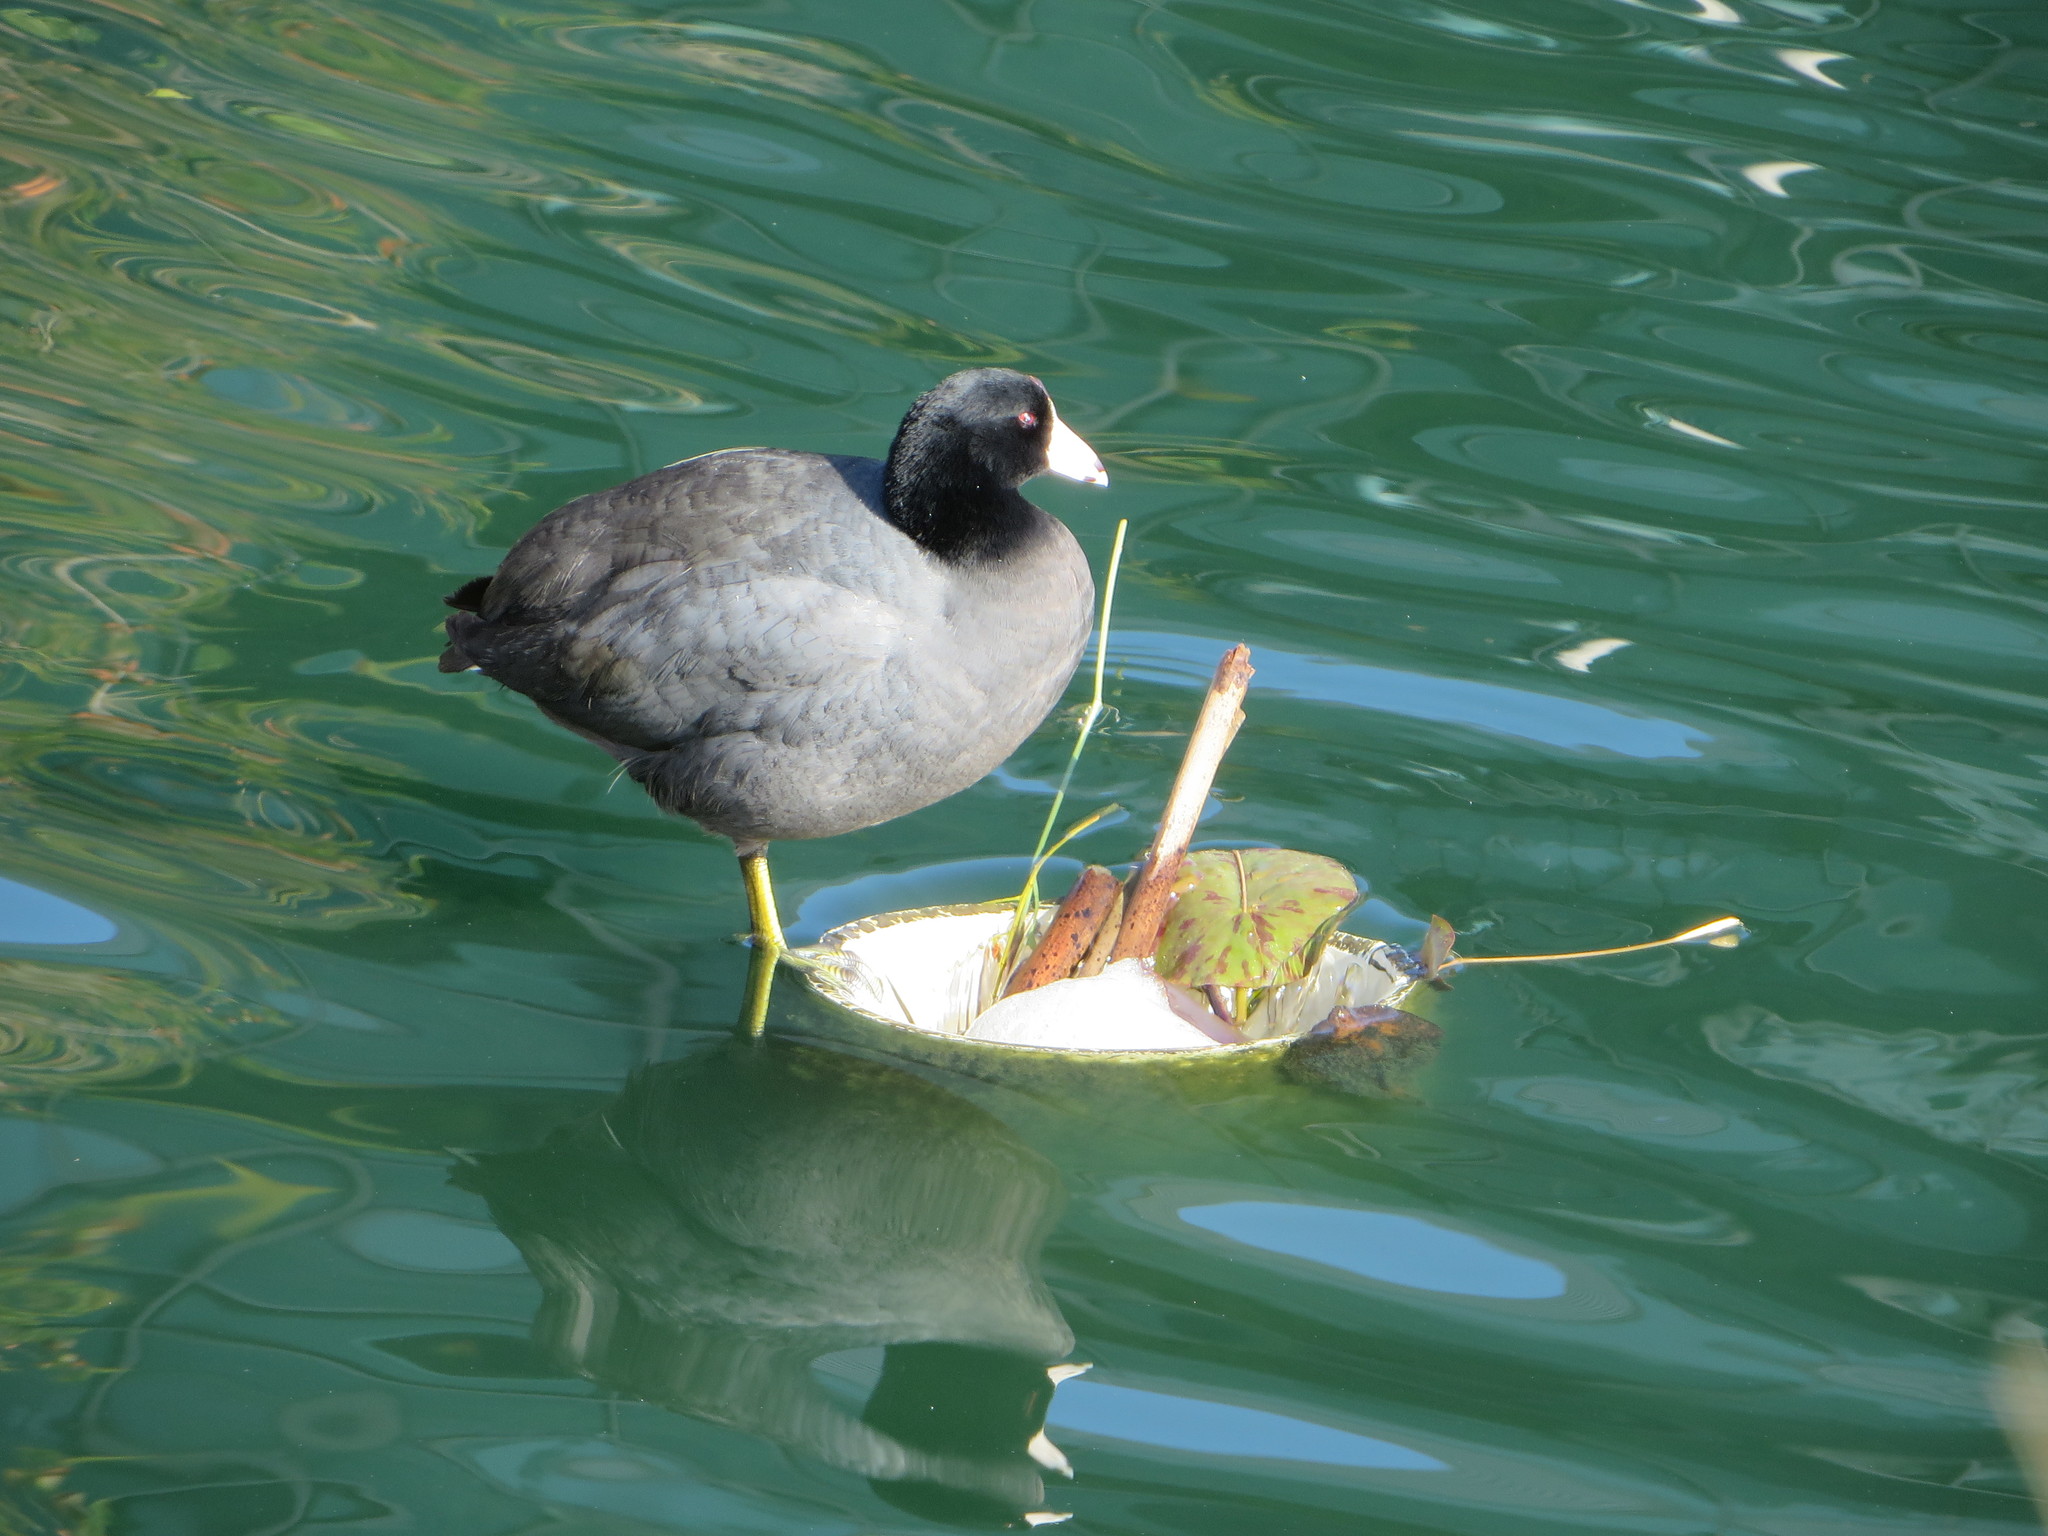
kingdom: Animalia
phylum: Chordata
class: Aves
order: Gruiformes
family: Rallidae
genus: Fulica
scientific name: Fulica americana
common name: American coot
